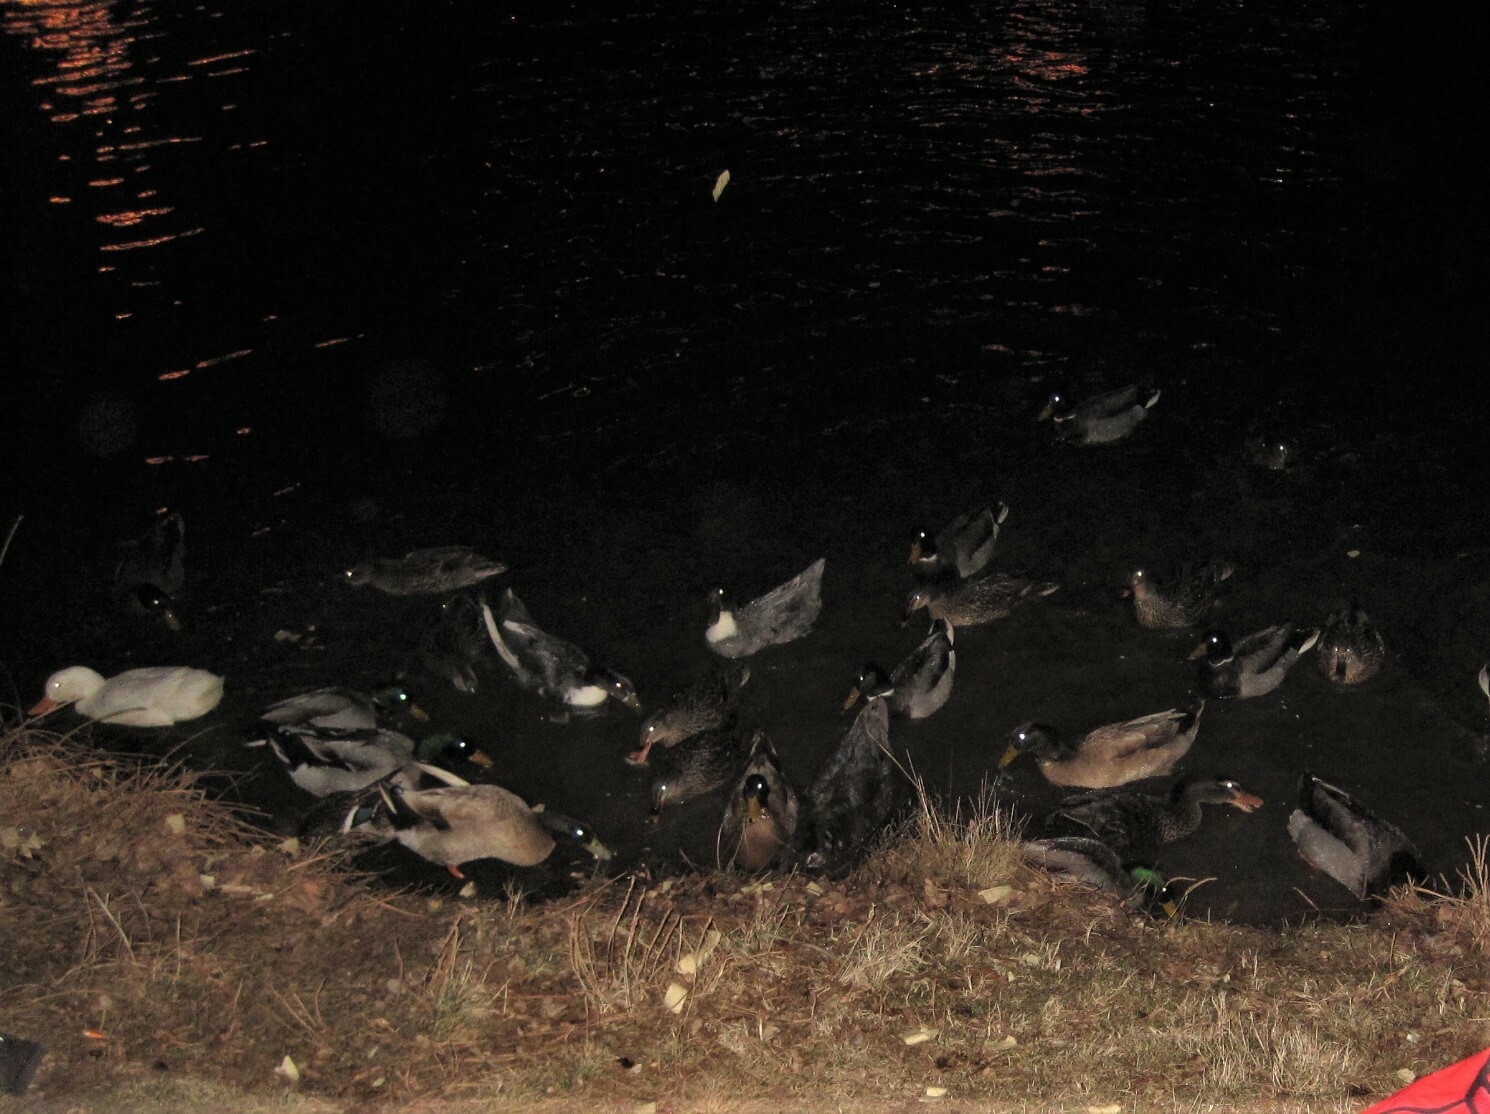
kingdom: Animalia
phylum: Chordata
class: Aves
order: Anseriformes
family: Anatidae
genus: Anas
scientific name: Anas platyrhynchos
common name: Mallard
